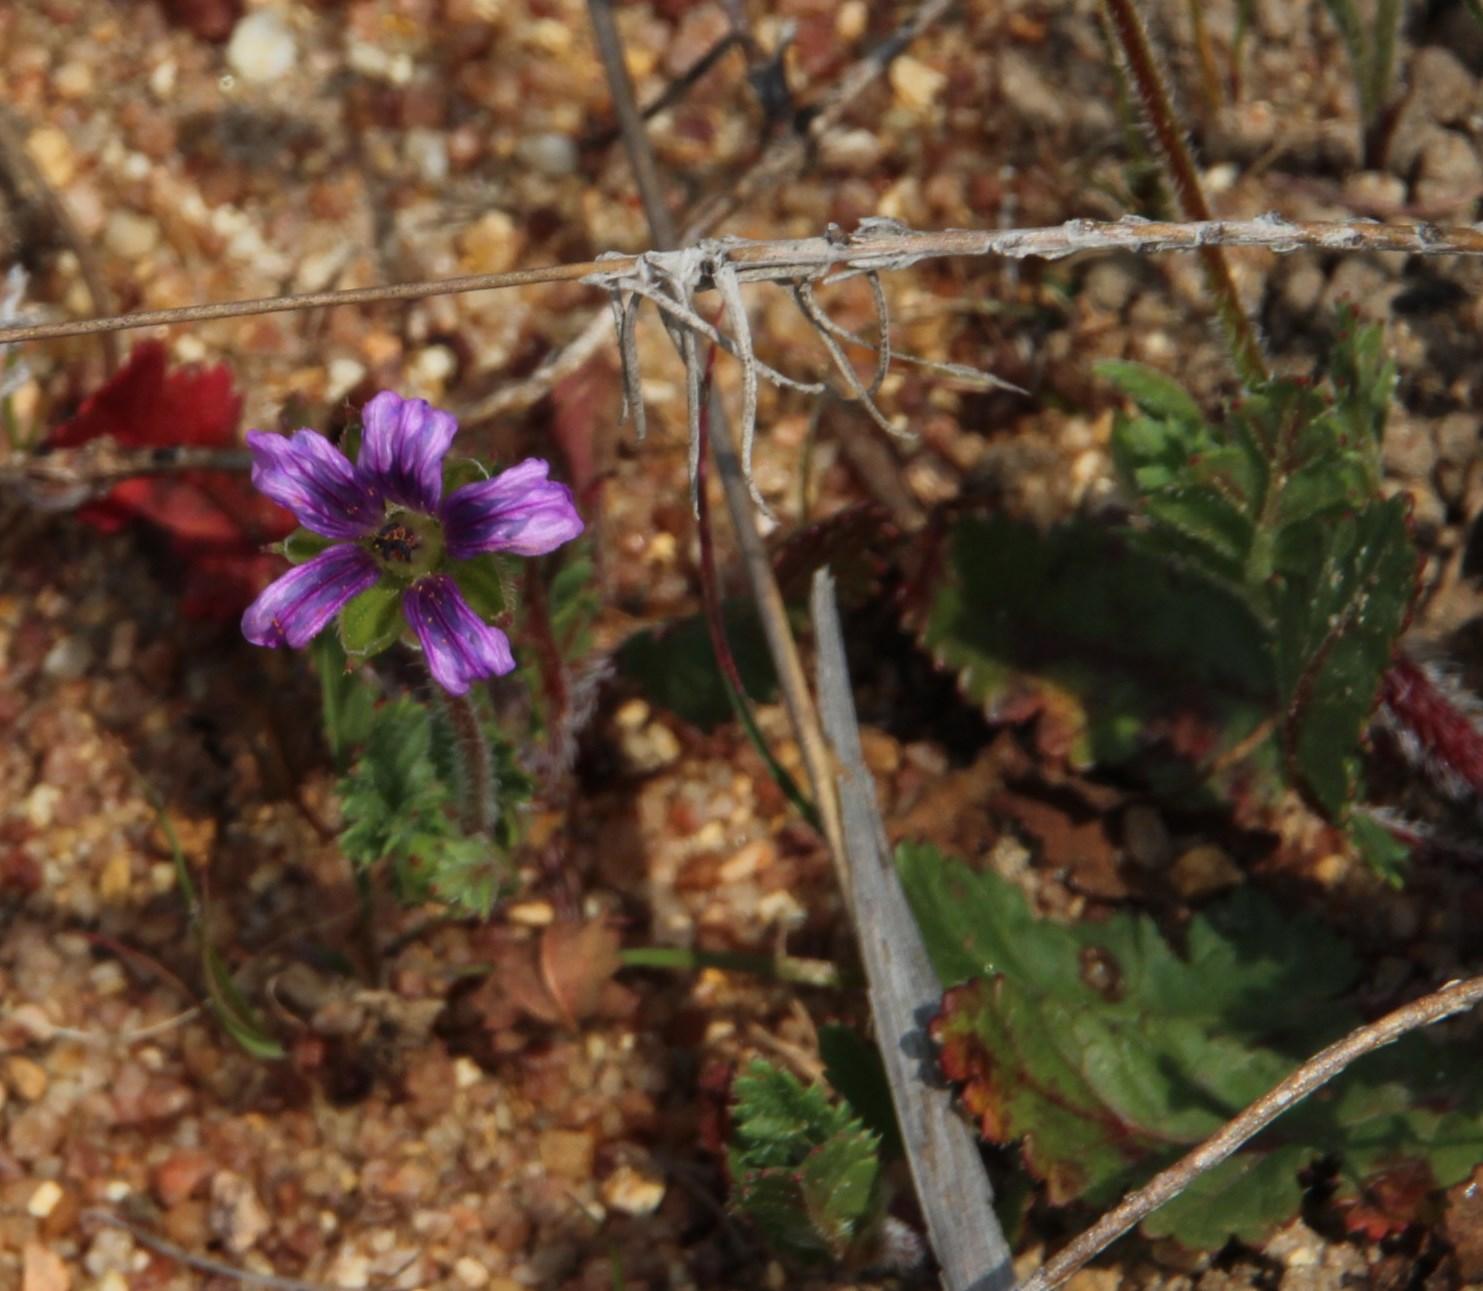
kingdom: Plantae
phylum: Tracheophyta
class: Magnoliopsida
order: Geraniales
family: Geraniaceae
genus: Erodium
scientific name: Erodium botrys
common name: Mediterranean stork's-bill
